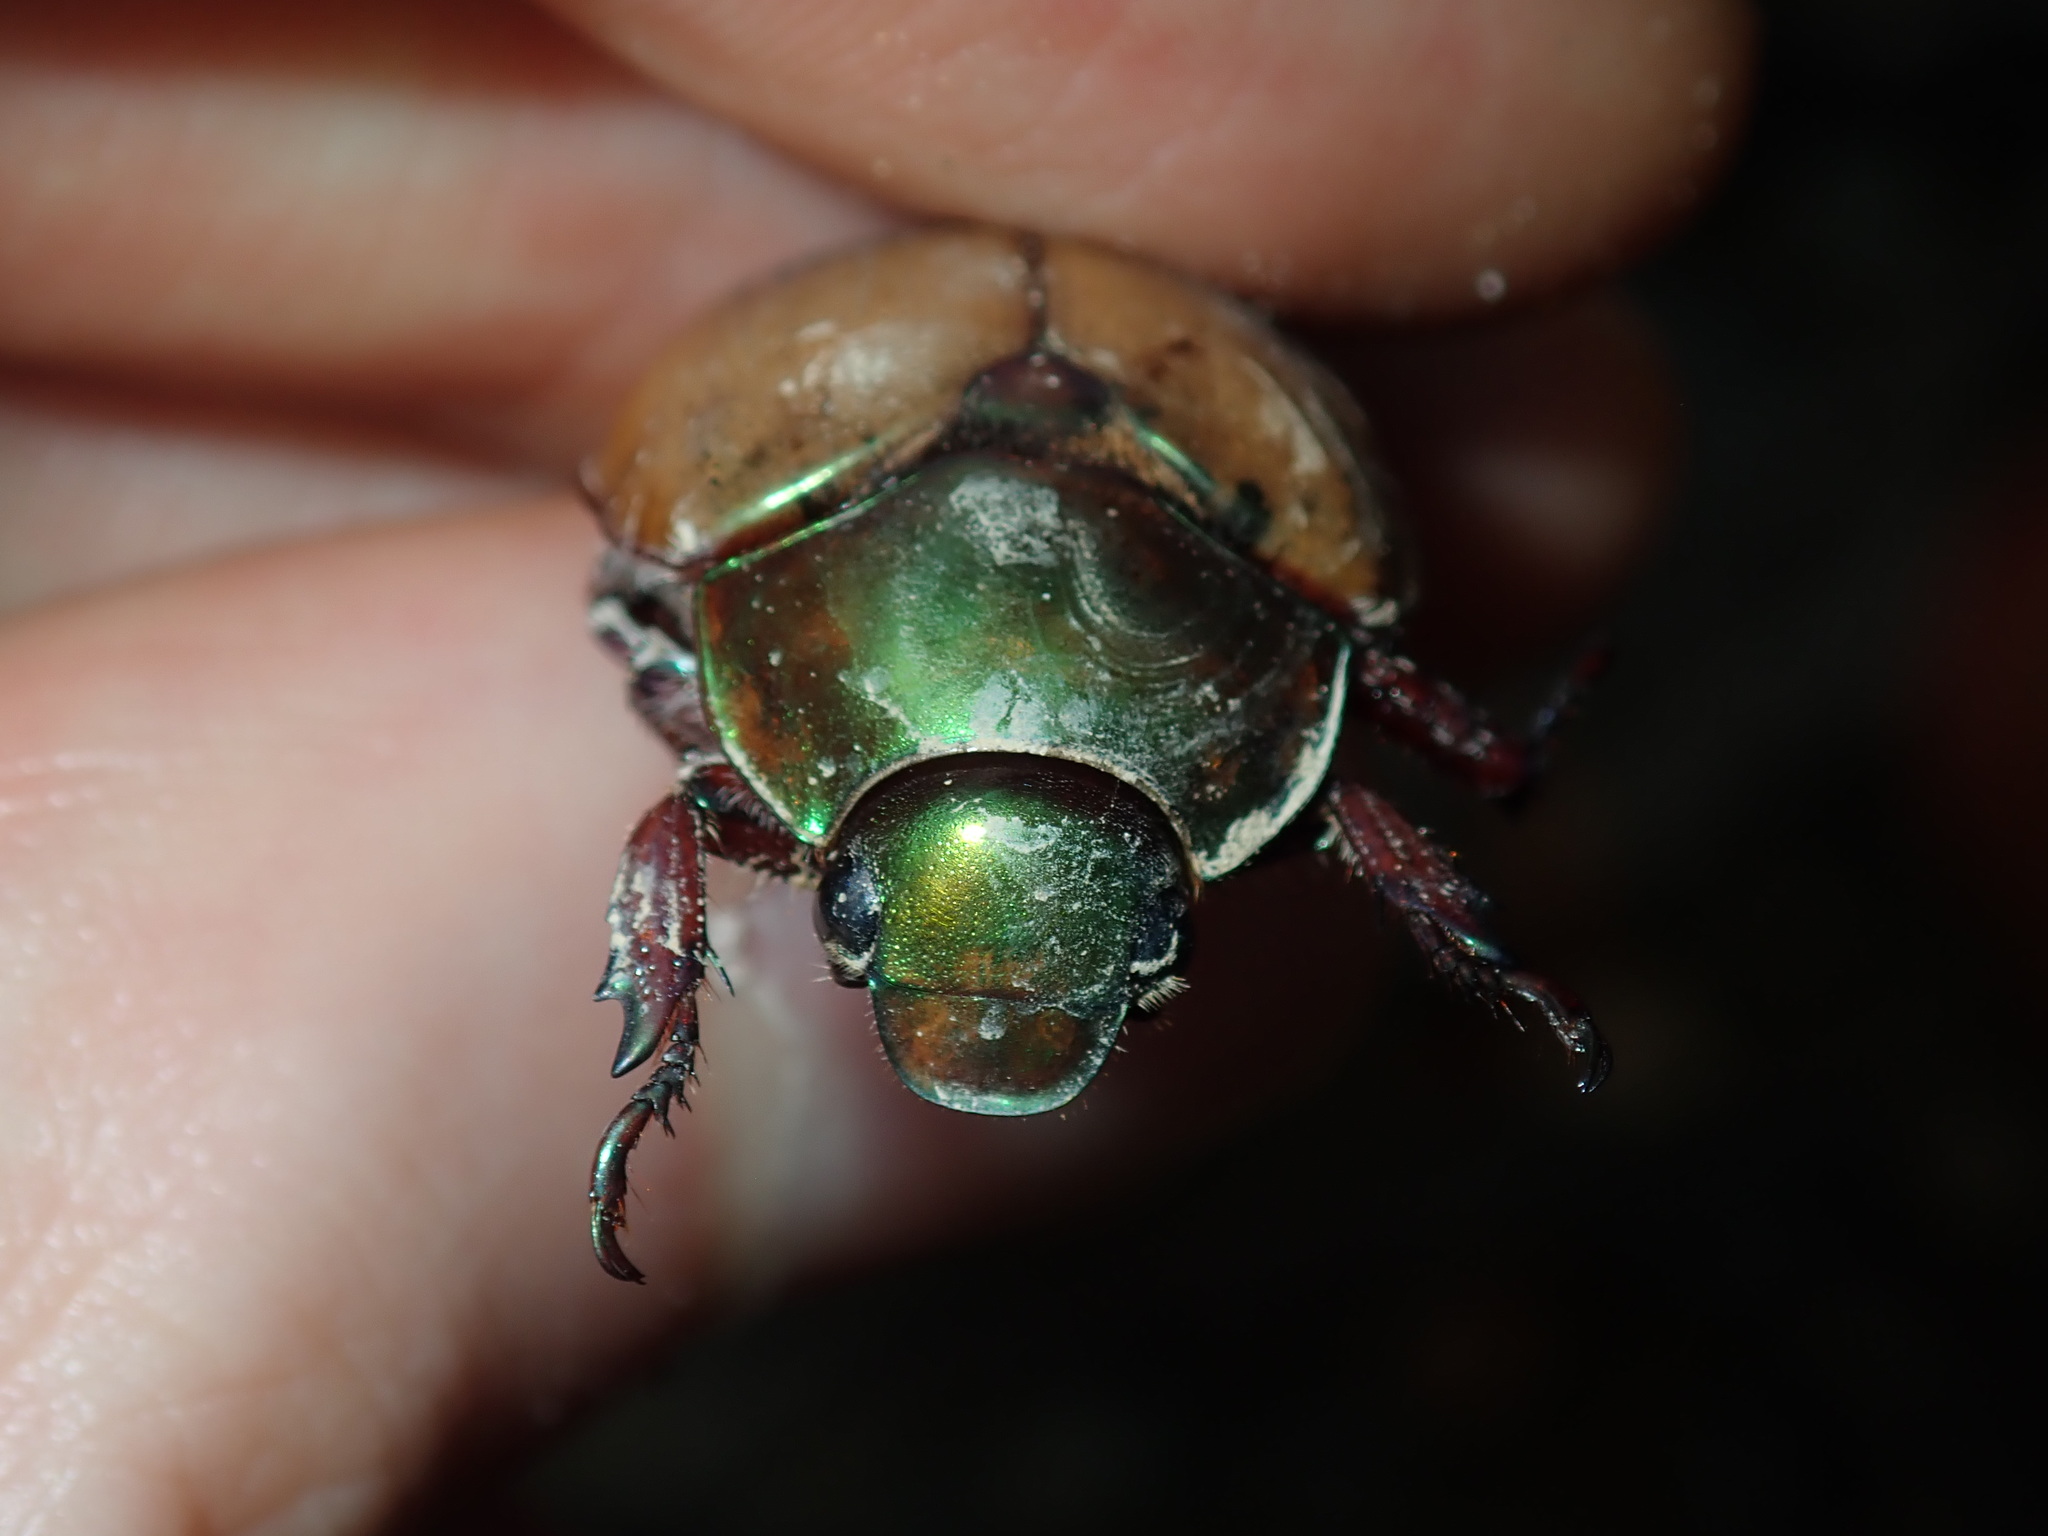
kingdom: Animalia
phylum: Arthropoda
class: Insecta
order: Coleoptera
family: Scarabaeidae
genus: Anoplognathus
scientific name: Anoplognathus brunnipennis
